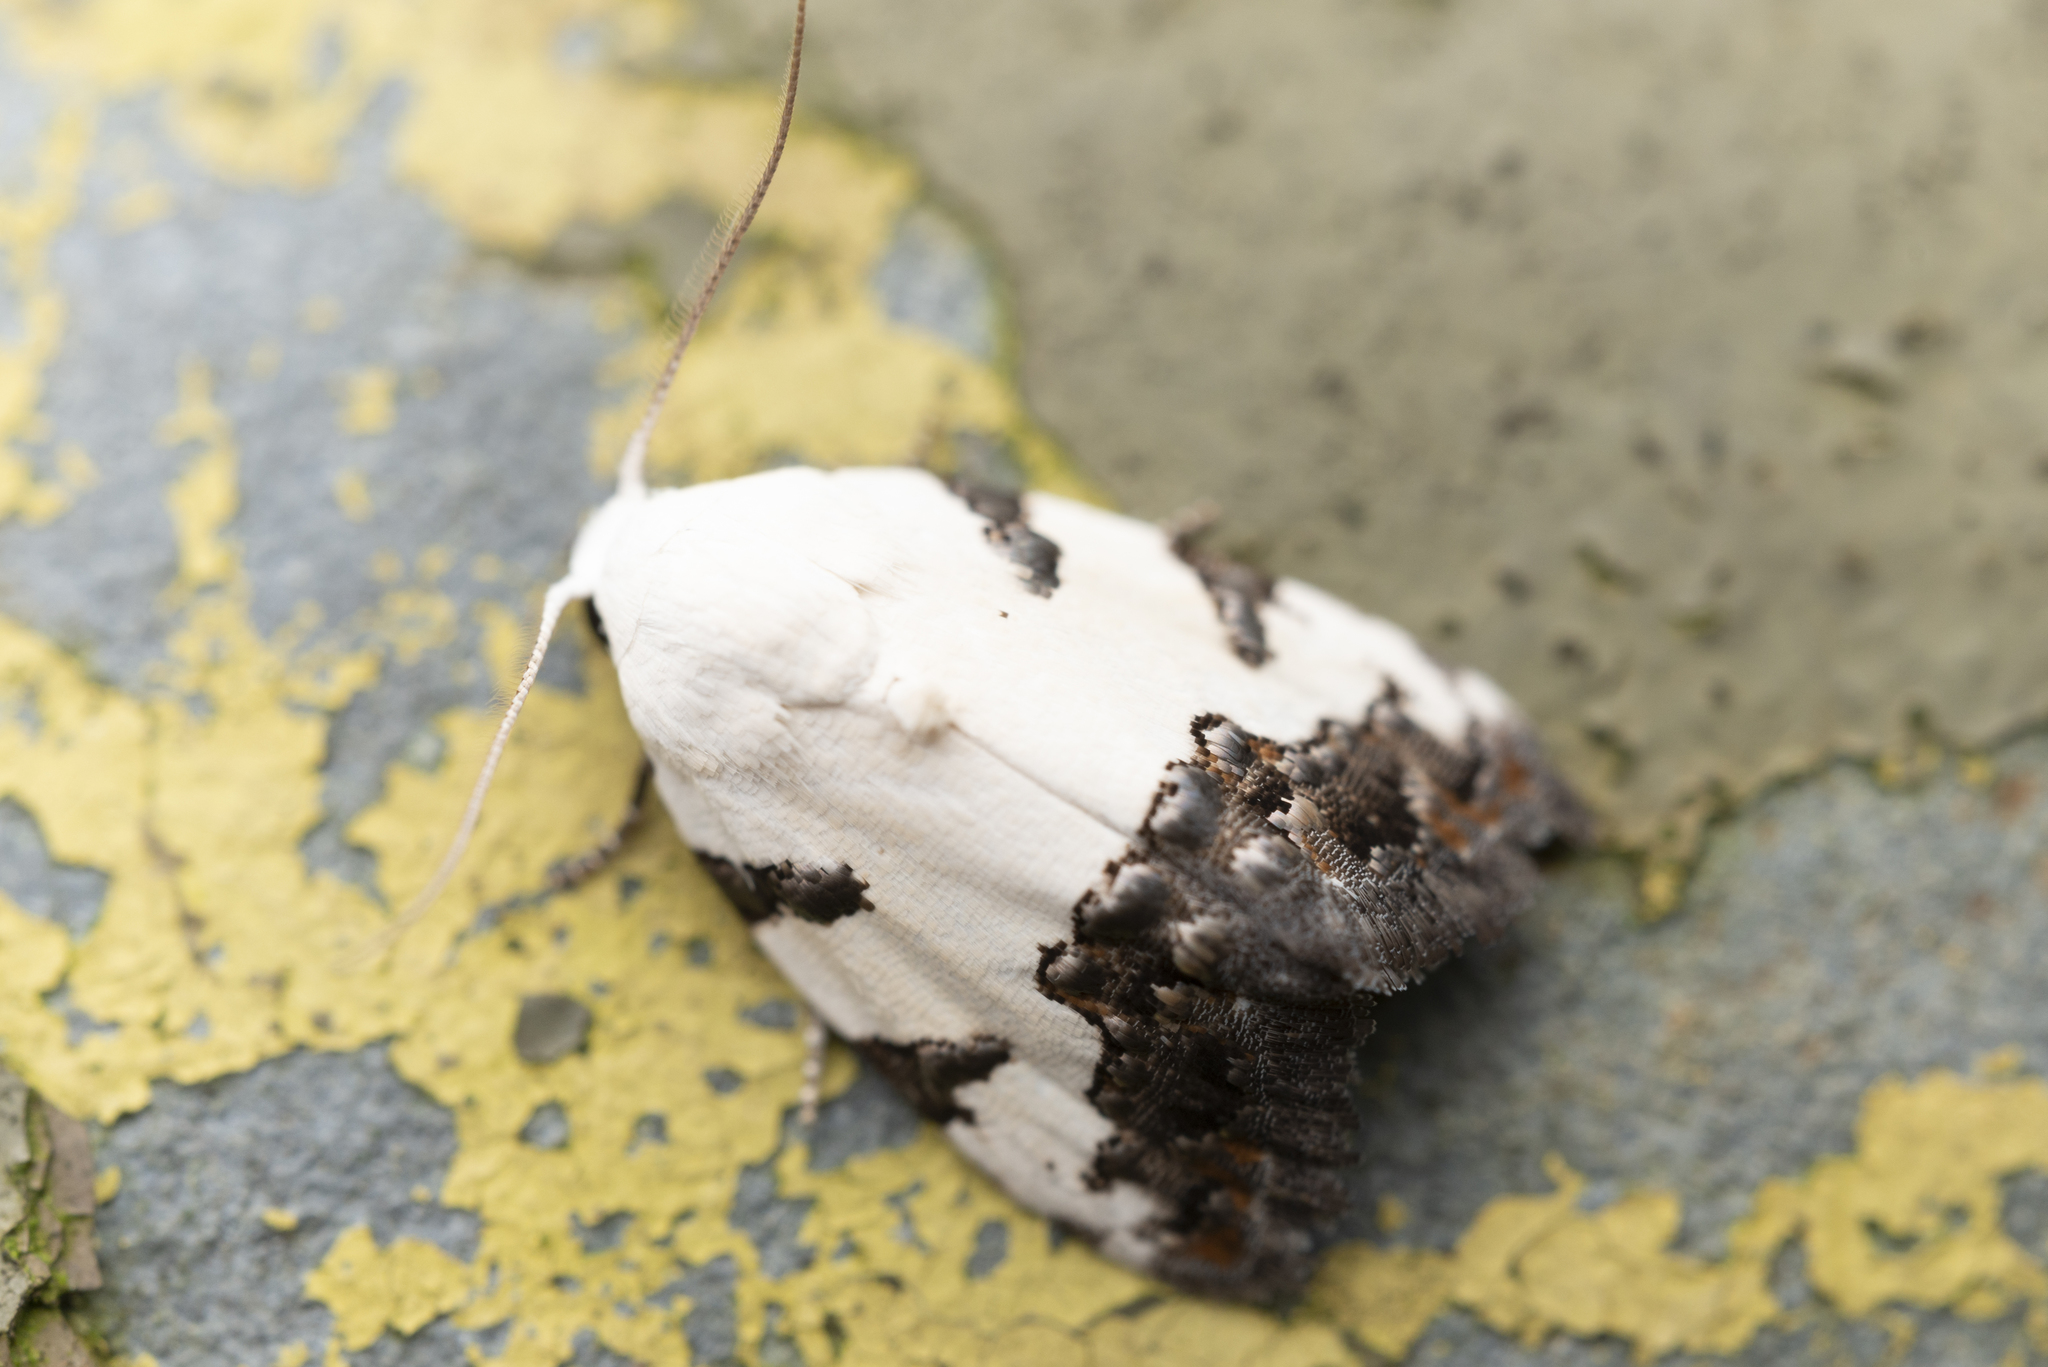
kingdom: Animalia
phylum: Arthropoda
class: Insecta
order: Lepidoptera
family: Nolidae
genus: Casminola
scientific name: Casminola johannstumpfi
